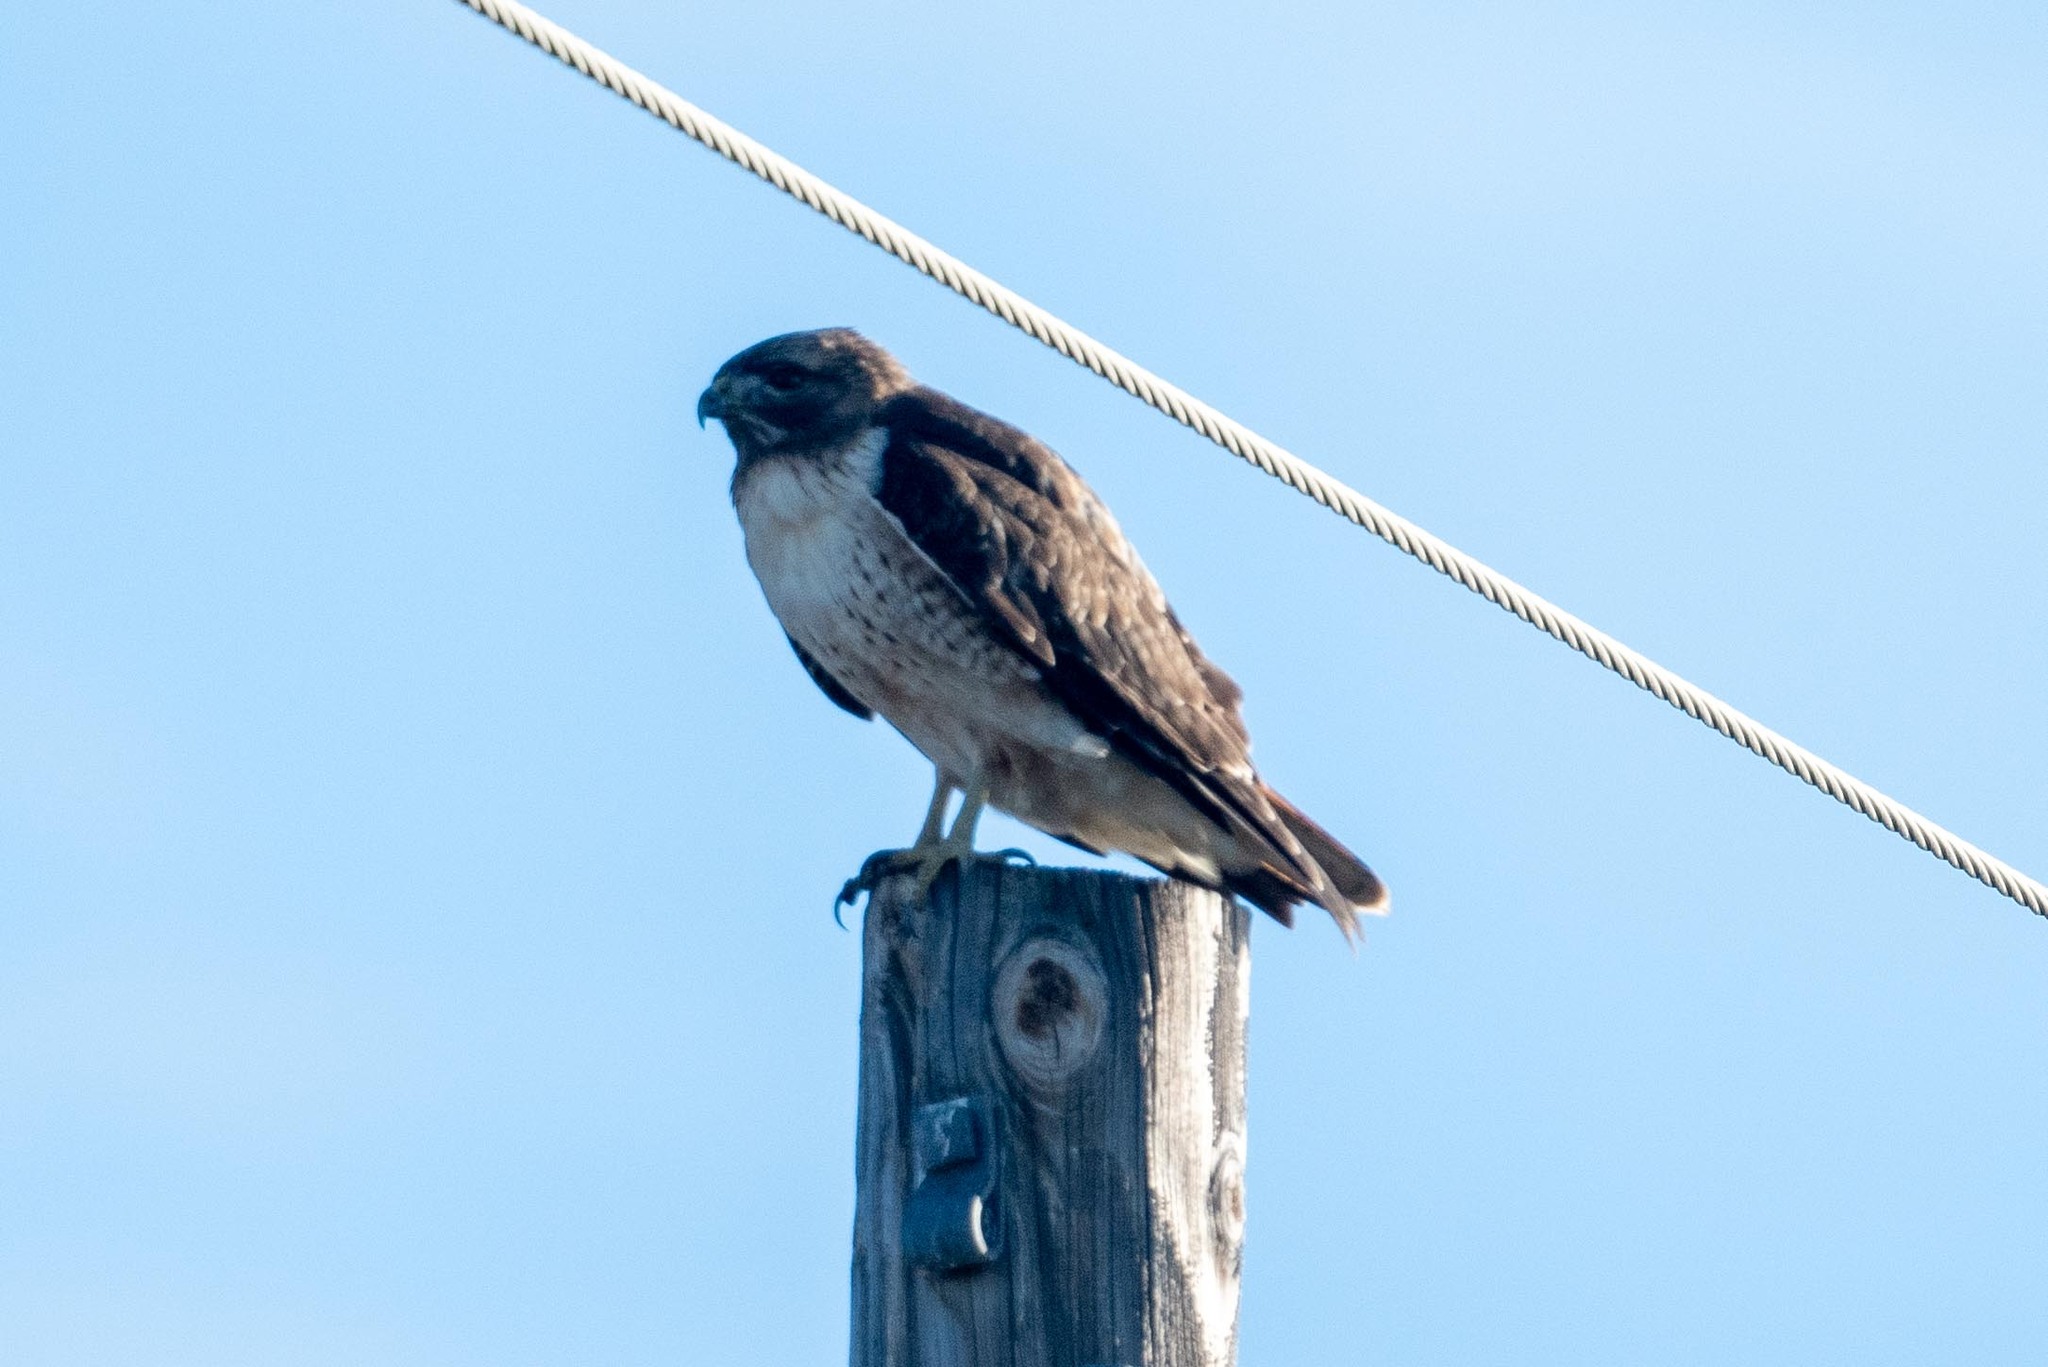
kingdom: Animalia
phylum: Chordata
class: Aves
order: Accipitriformes
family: Accipitridae
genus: Buteo
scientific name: Buteo jamaicensis
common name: Red-tailed hawk
